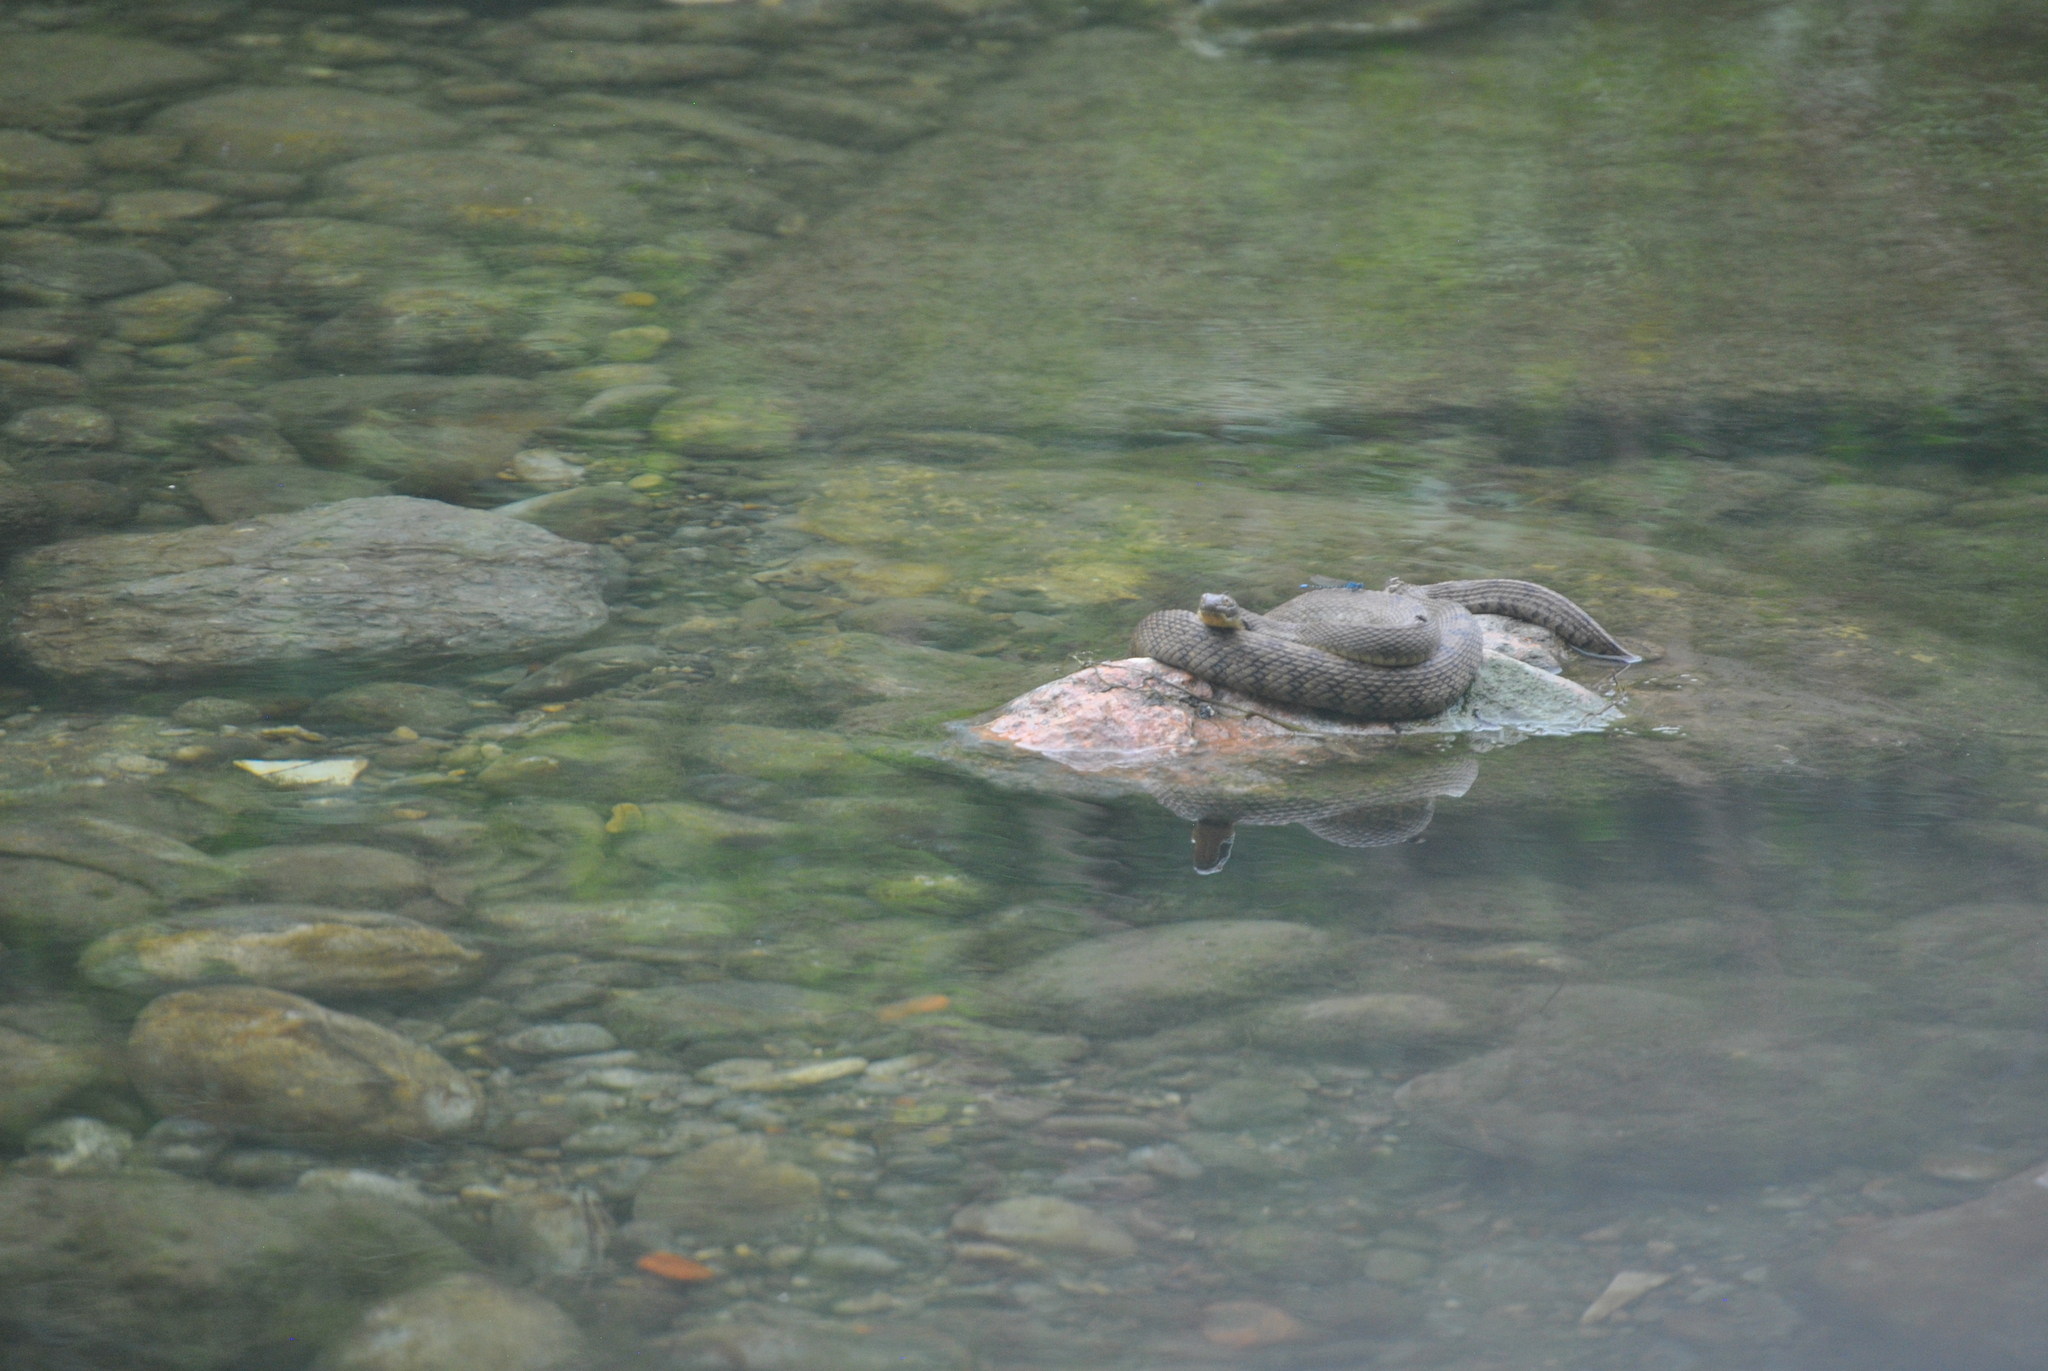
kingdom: Animalia
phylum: Chordata
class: Squamata
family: Colubridae
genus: Nerodia
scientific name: Nerodia rhombifer
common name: Diamondback water snake
